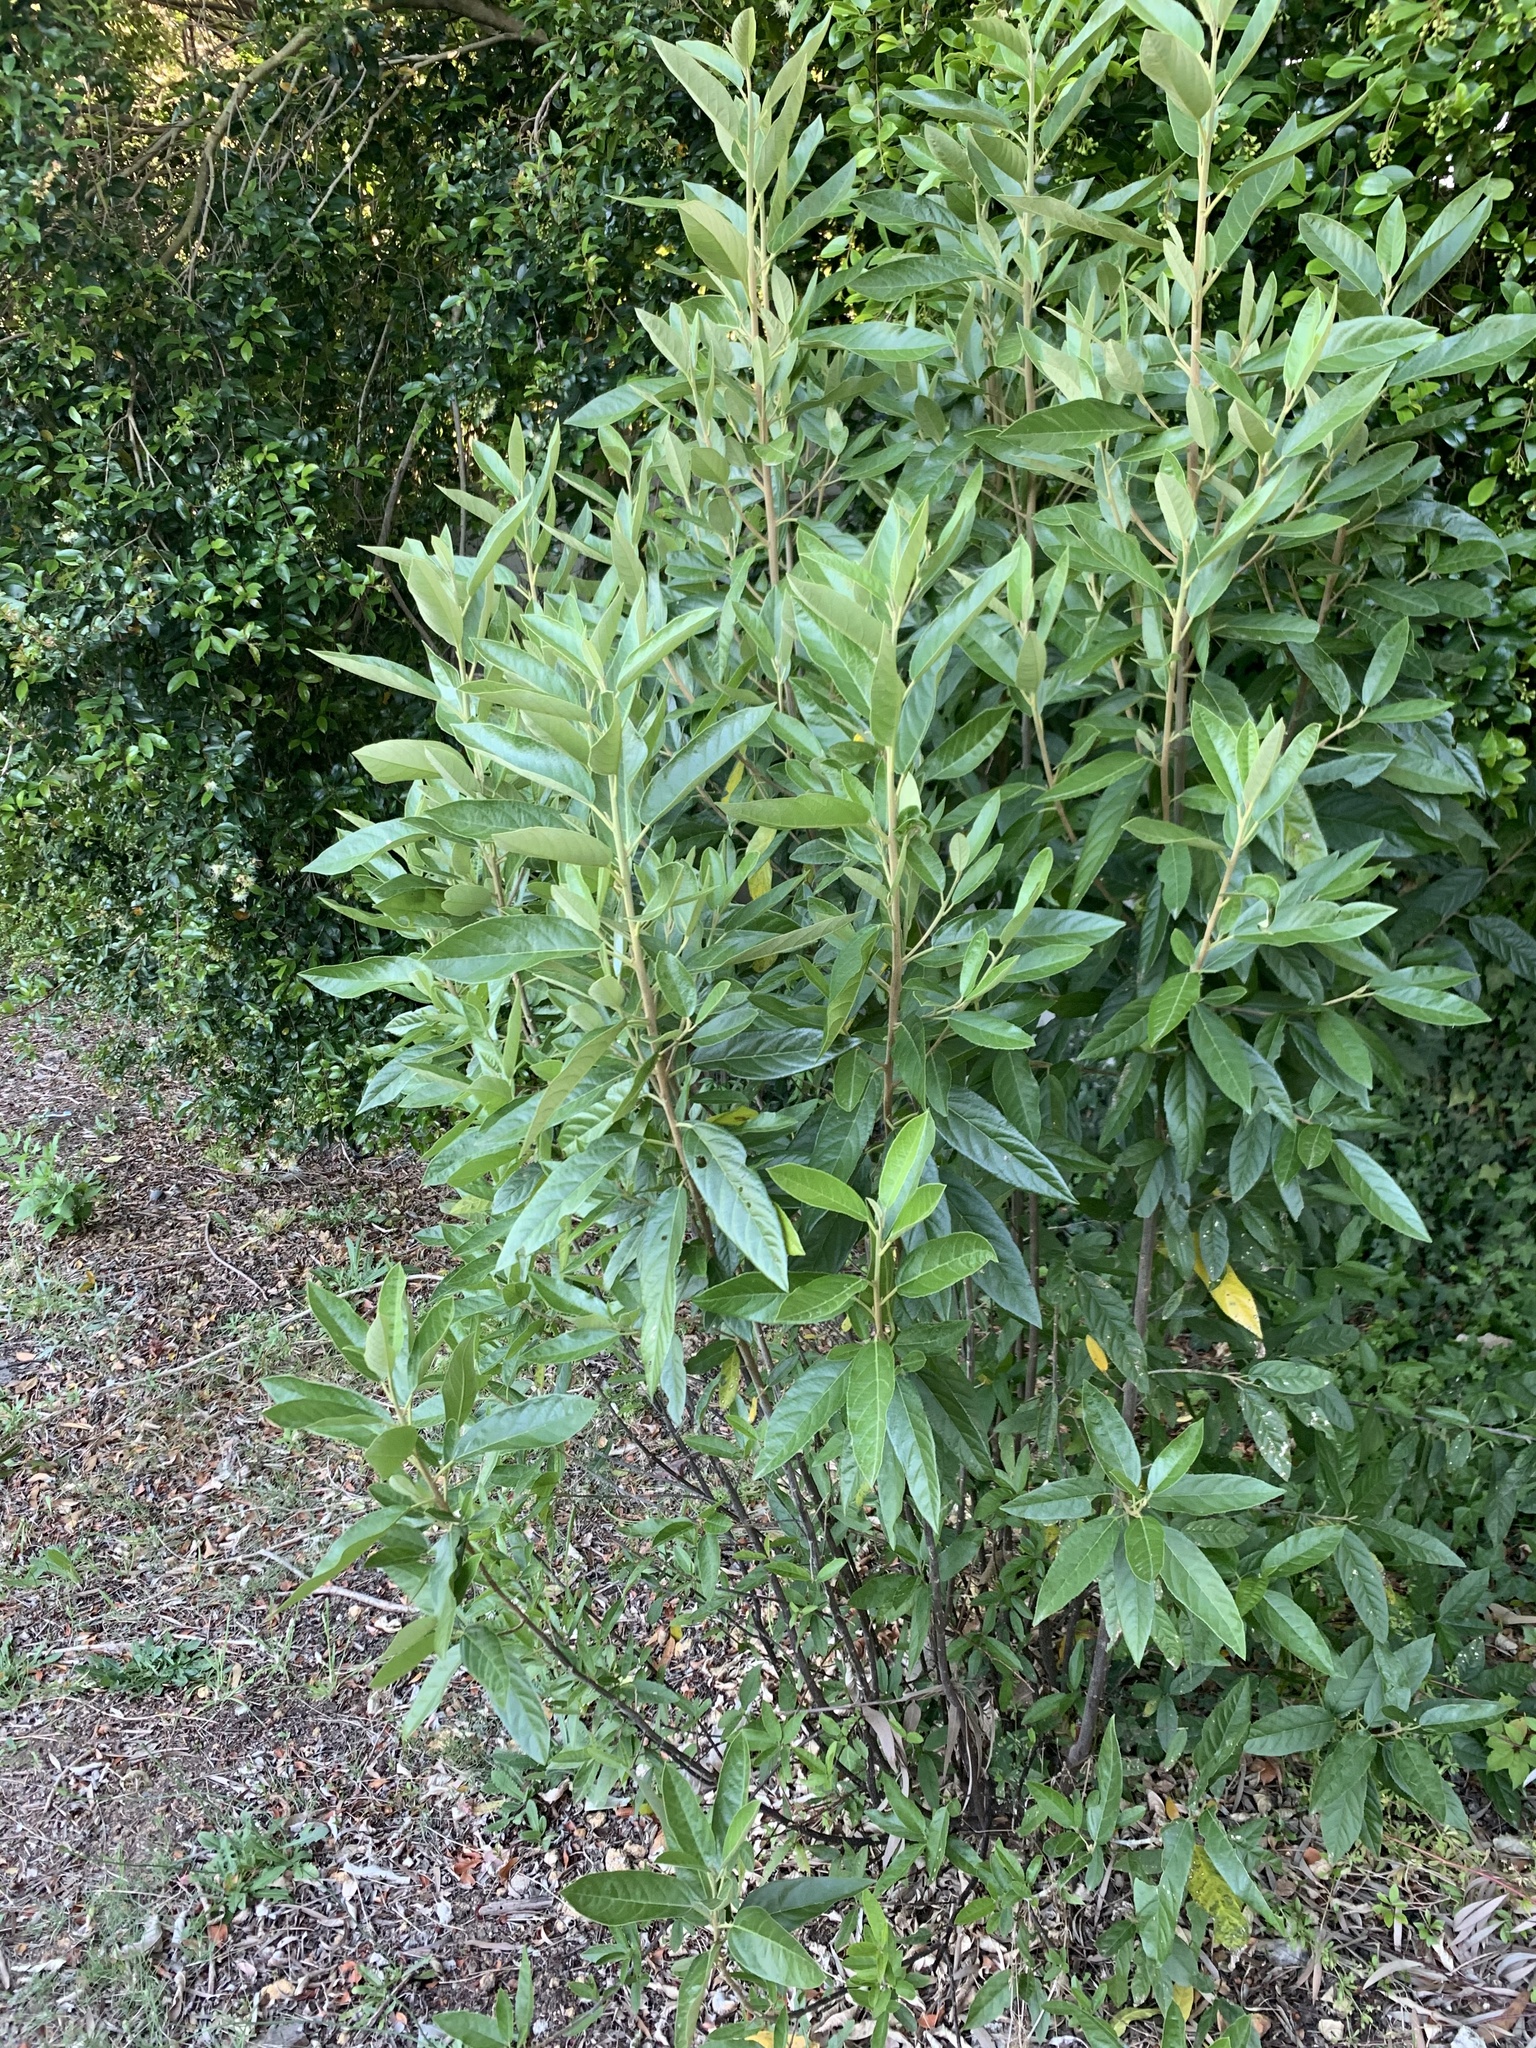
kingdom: Plantae
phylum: Tracheophyta
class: Magnoliopsida
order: Malpighiales
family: Achariaceae
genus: Kiggelaria
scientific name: Kiggelaria africana
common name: Wild peach
